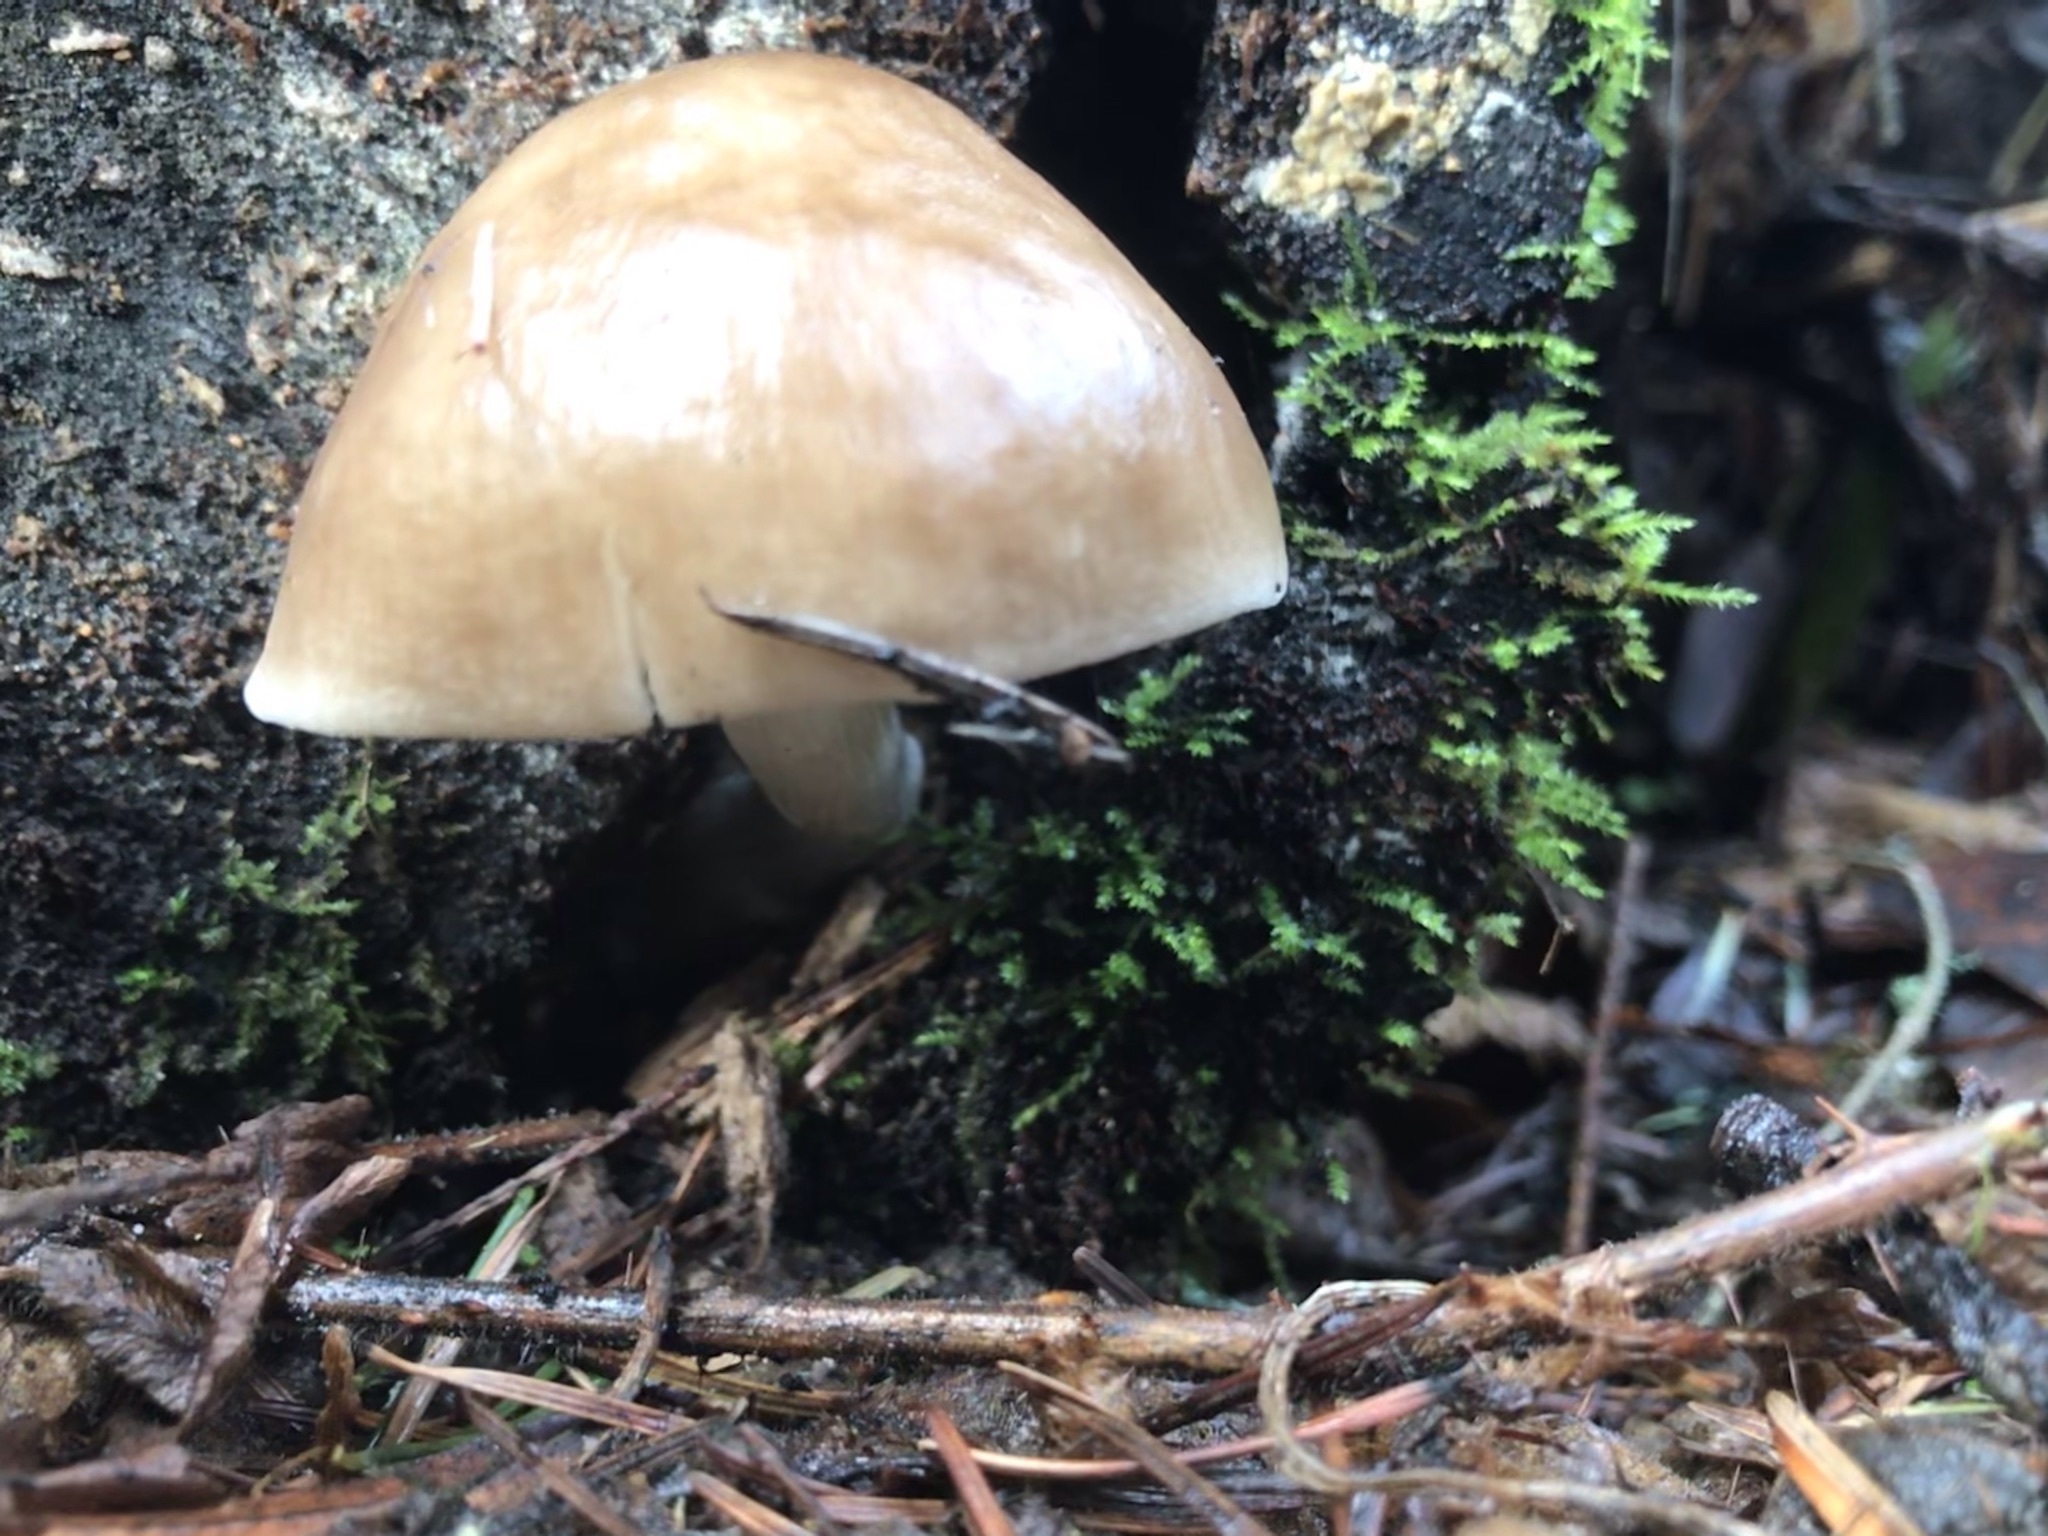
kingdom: Fungi
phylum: Basidiomycota
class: Agaricomycetes
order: Agaricales
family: Pluteaceae
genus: Pluteus
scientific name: Pluteus cervinus
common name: Deer shield
